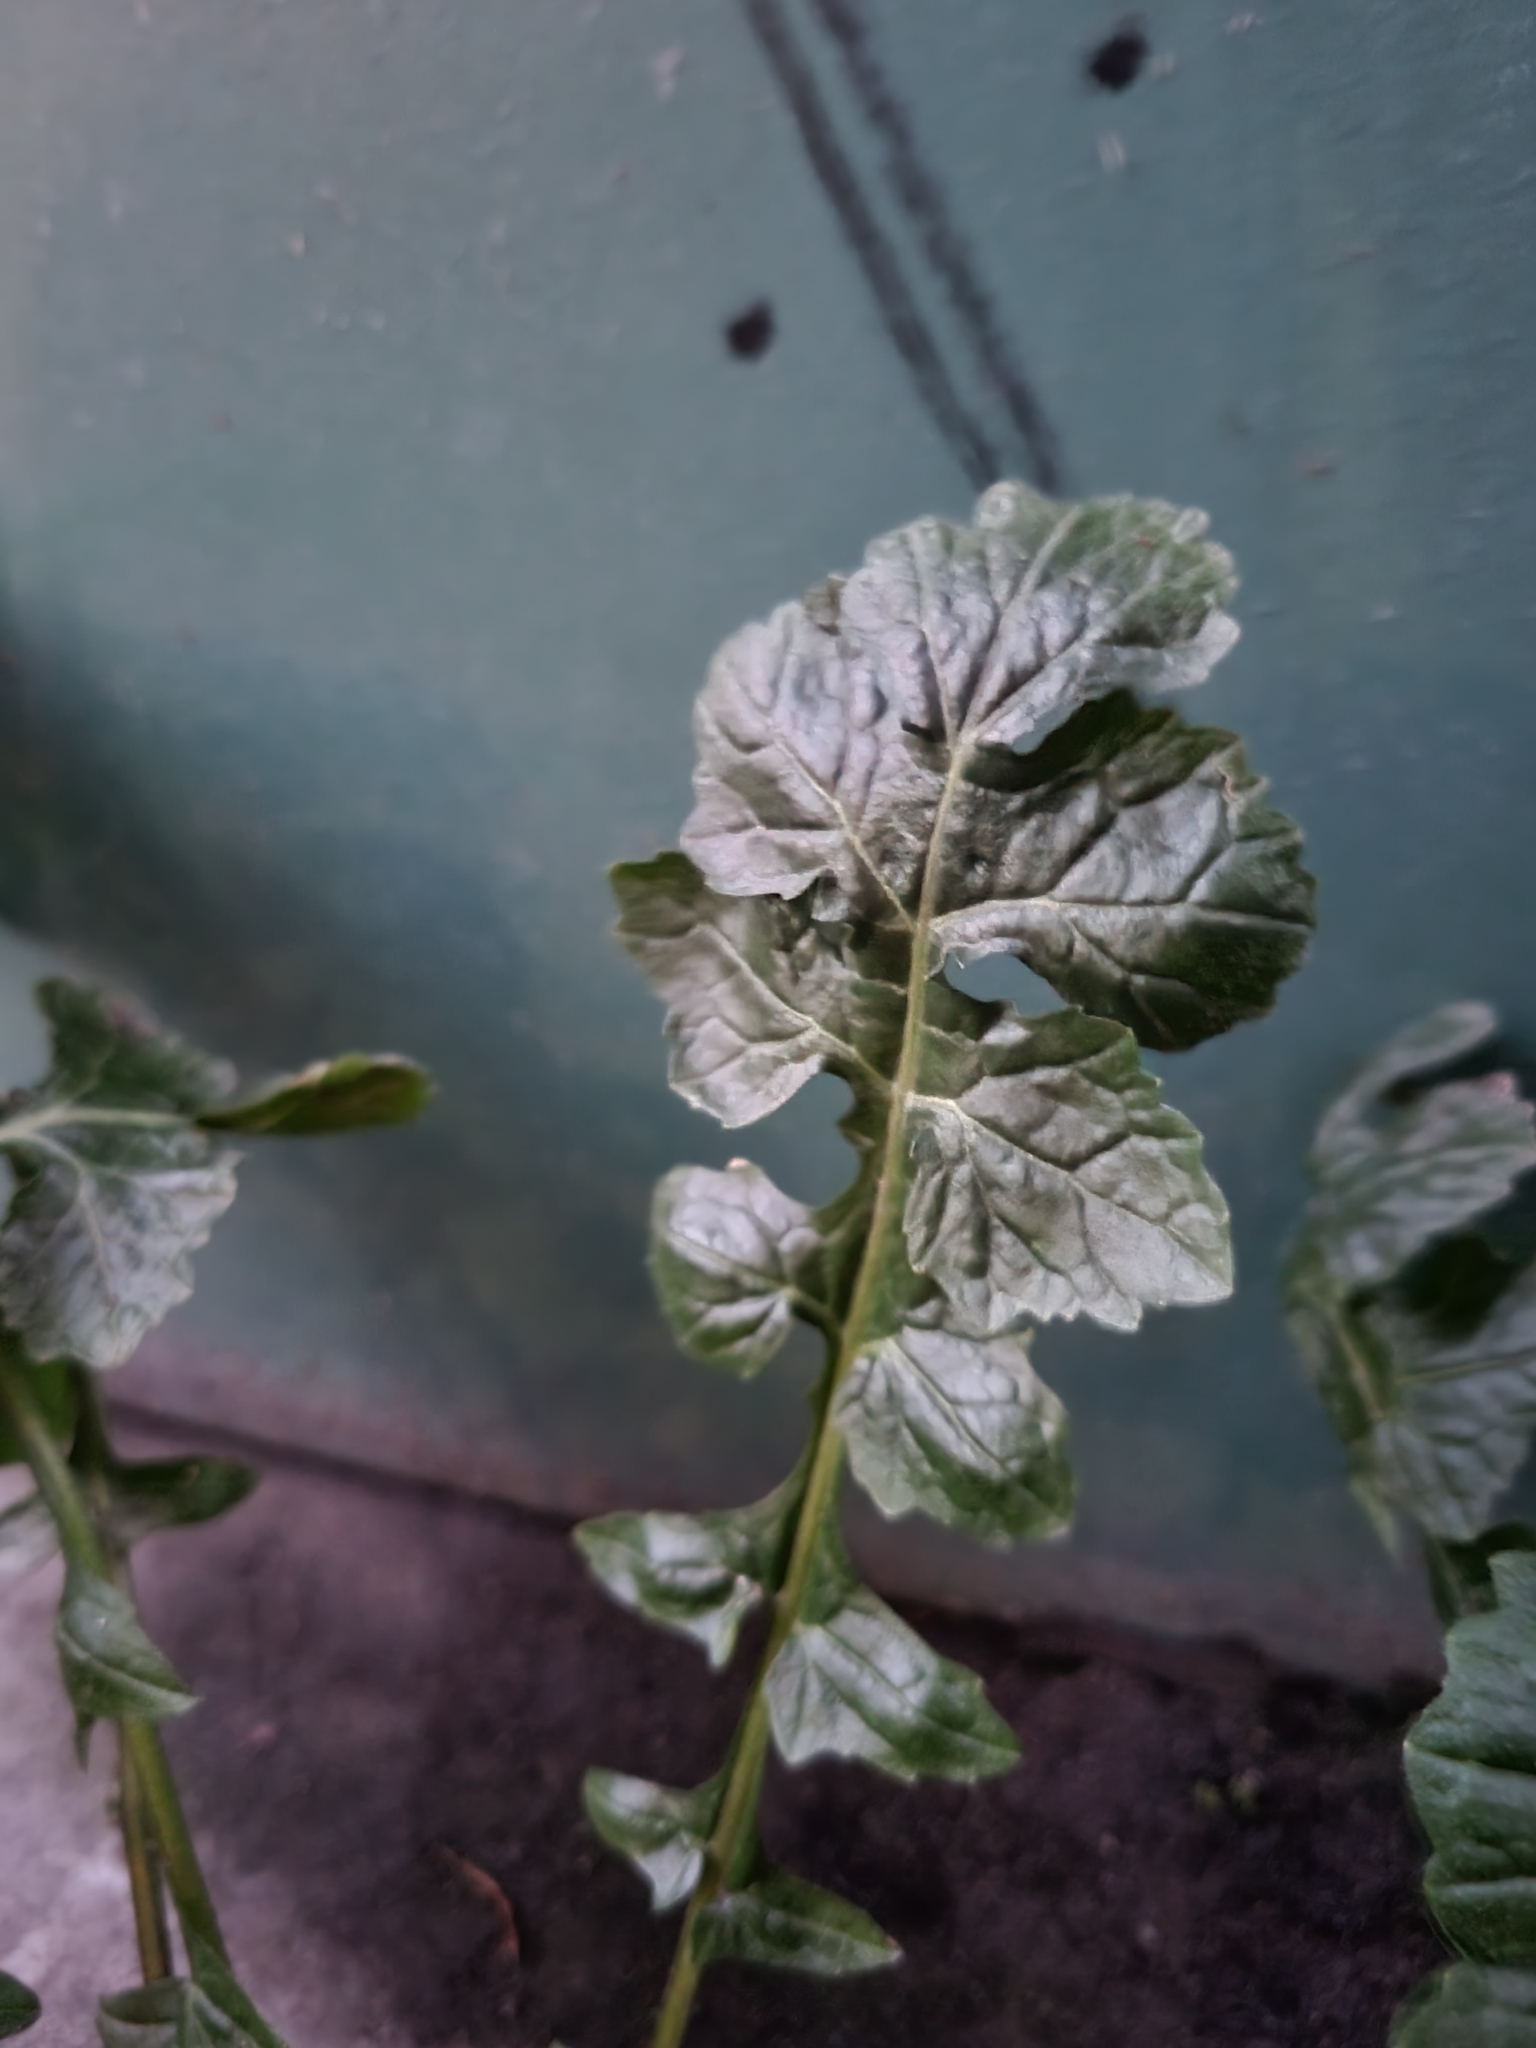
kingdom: Plantae
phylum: Tracheophyta
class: Magnoliopsida
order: Brassicales
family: Brassicaceae
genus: Sisymbrium
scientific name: Sisymbrium officinale
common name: Hedge mustard
